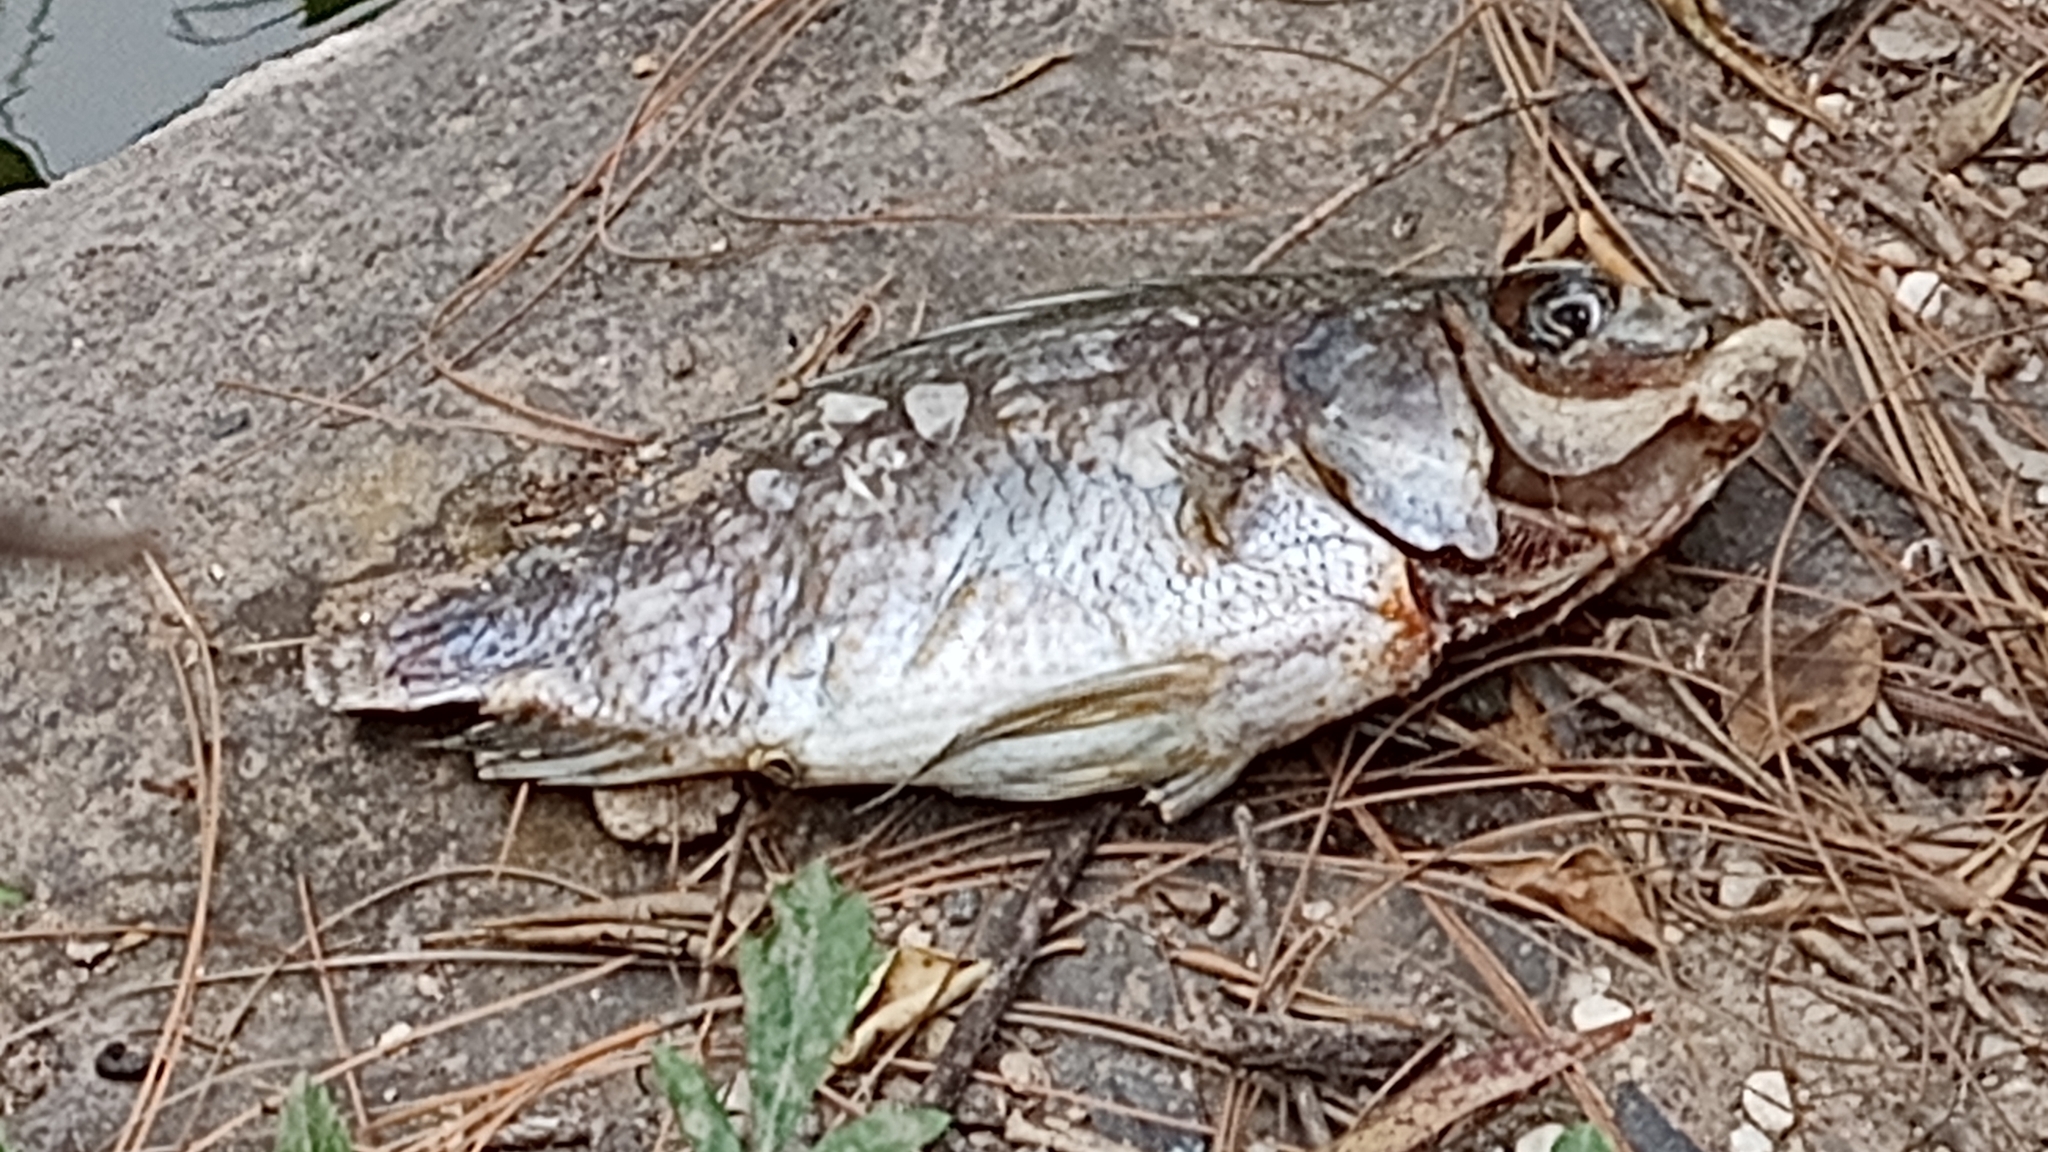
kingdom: Animalia
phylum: Chordata
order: Perciformes
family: Cichlidae
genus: Oreochromis
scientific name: Oreochromis niloticus
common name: Nile tilapia
